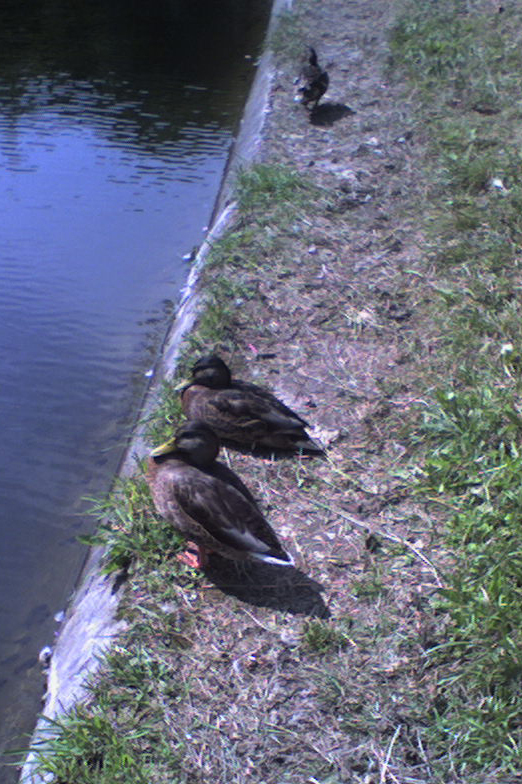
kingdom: Animalia
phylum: Chordata
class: Aves
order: Anseriformes
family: Anatidae
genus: Anas
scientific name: Anas platyrhynchos
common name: Mallard
